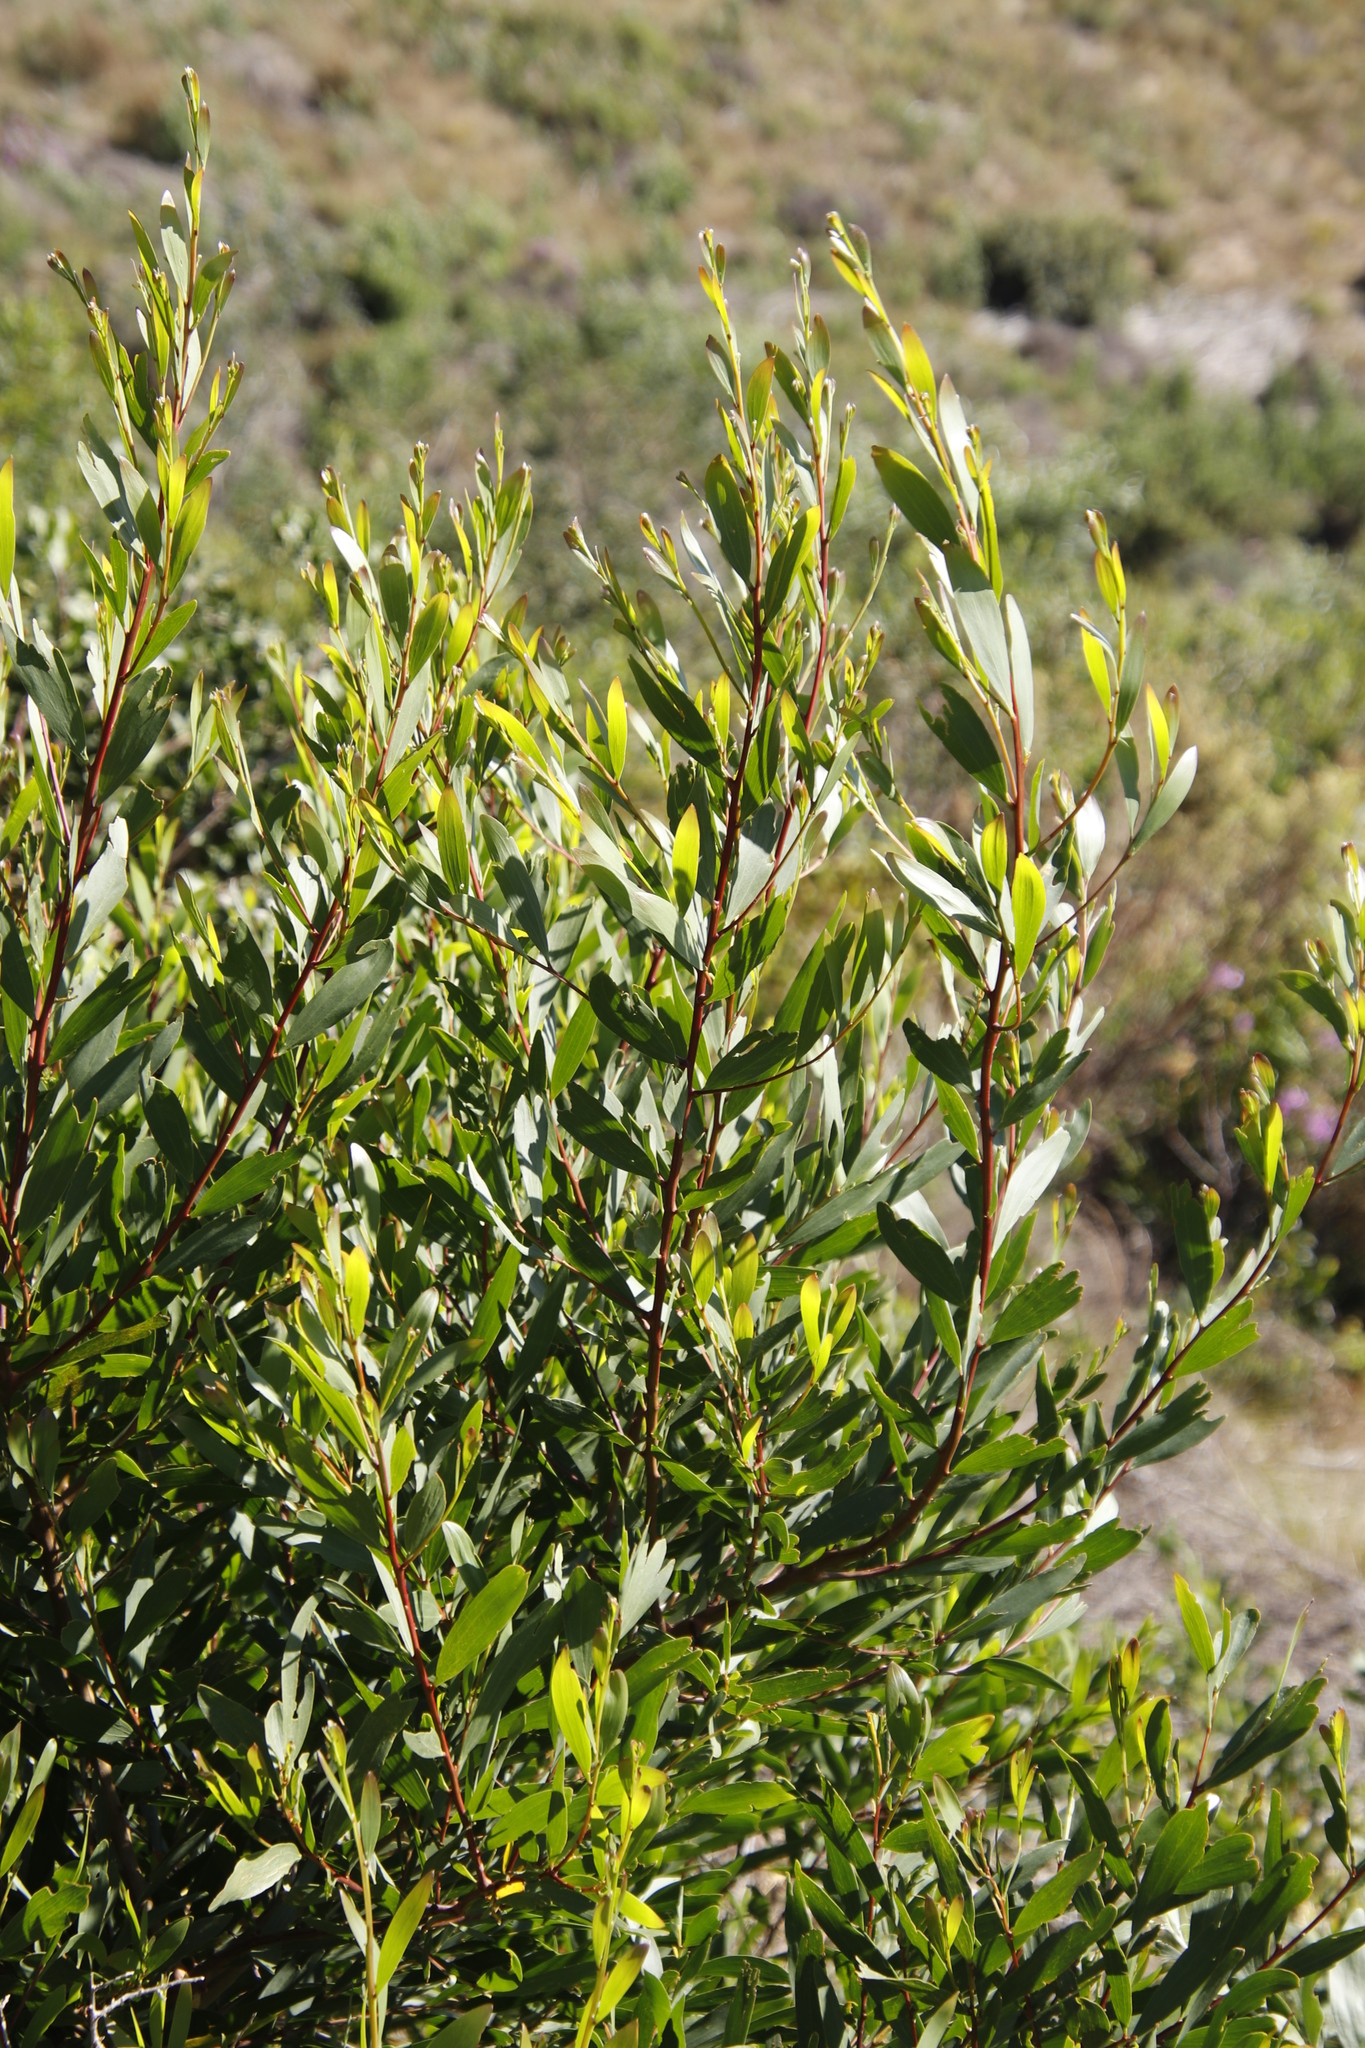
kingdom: Plantae
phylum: Tracheophyta
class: Magnoliopsida
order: Fabales
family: Fabaceae
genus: Acacia
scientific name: Acacia longifolia
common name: Sydney golden wattle
